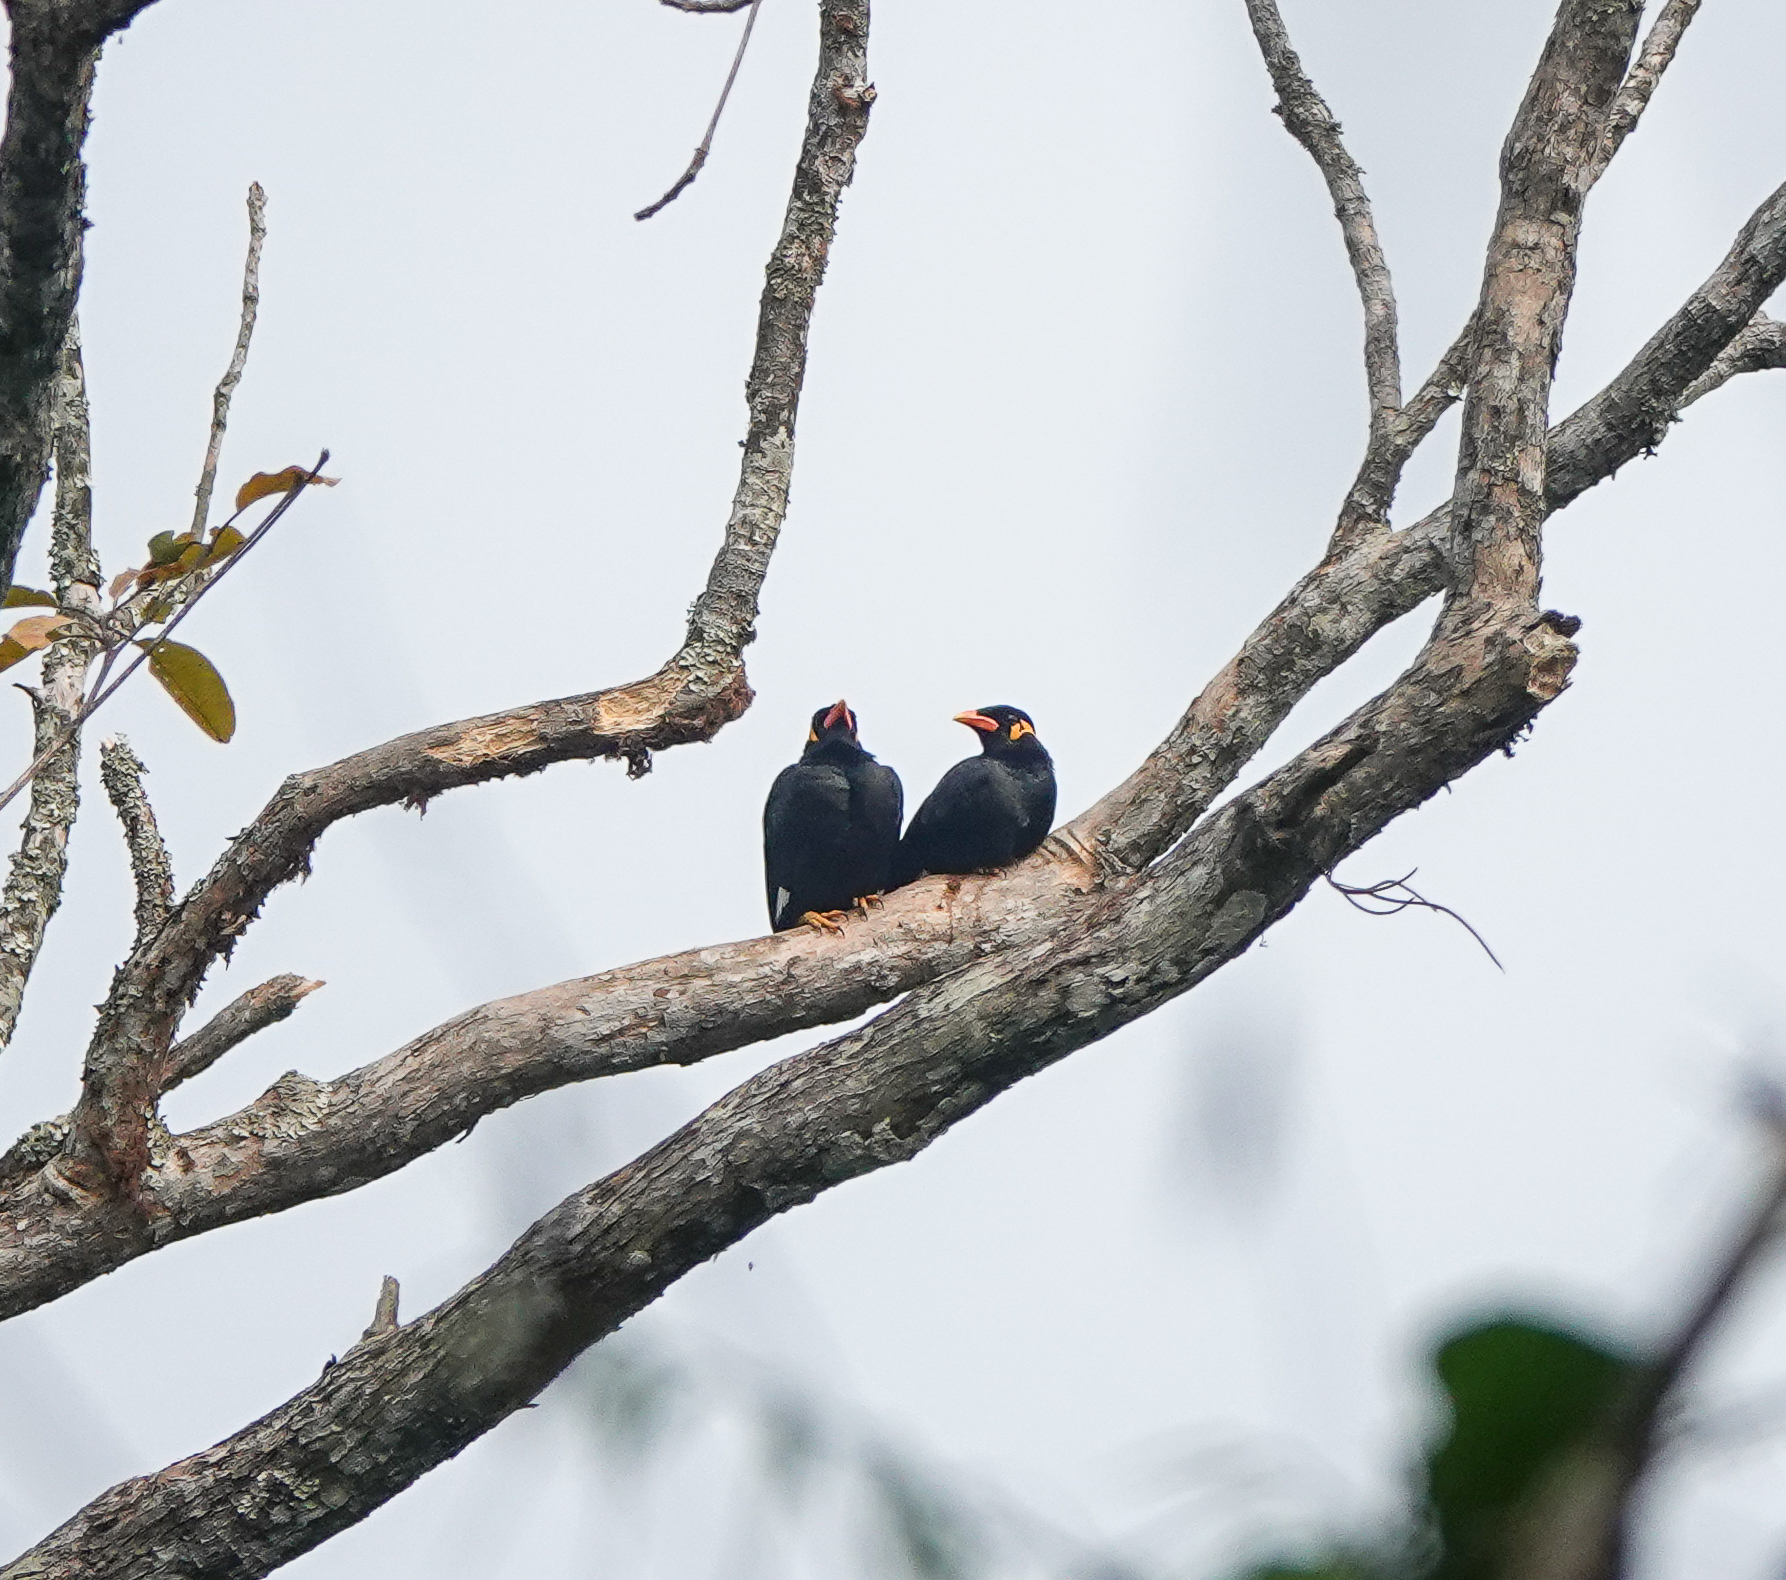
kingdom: Animalia
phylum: Chordata
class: Aves
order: Passeriformes
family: Sturnidae
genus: Gracula
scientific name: Gracula religiosa
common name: Common hill myna
